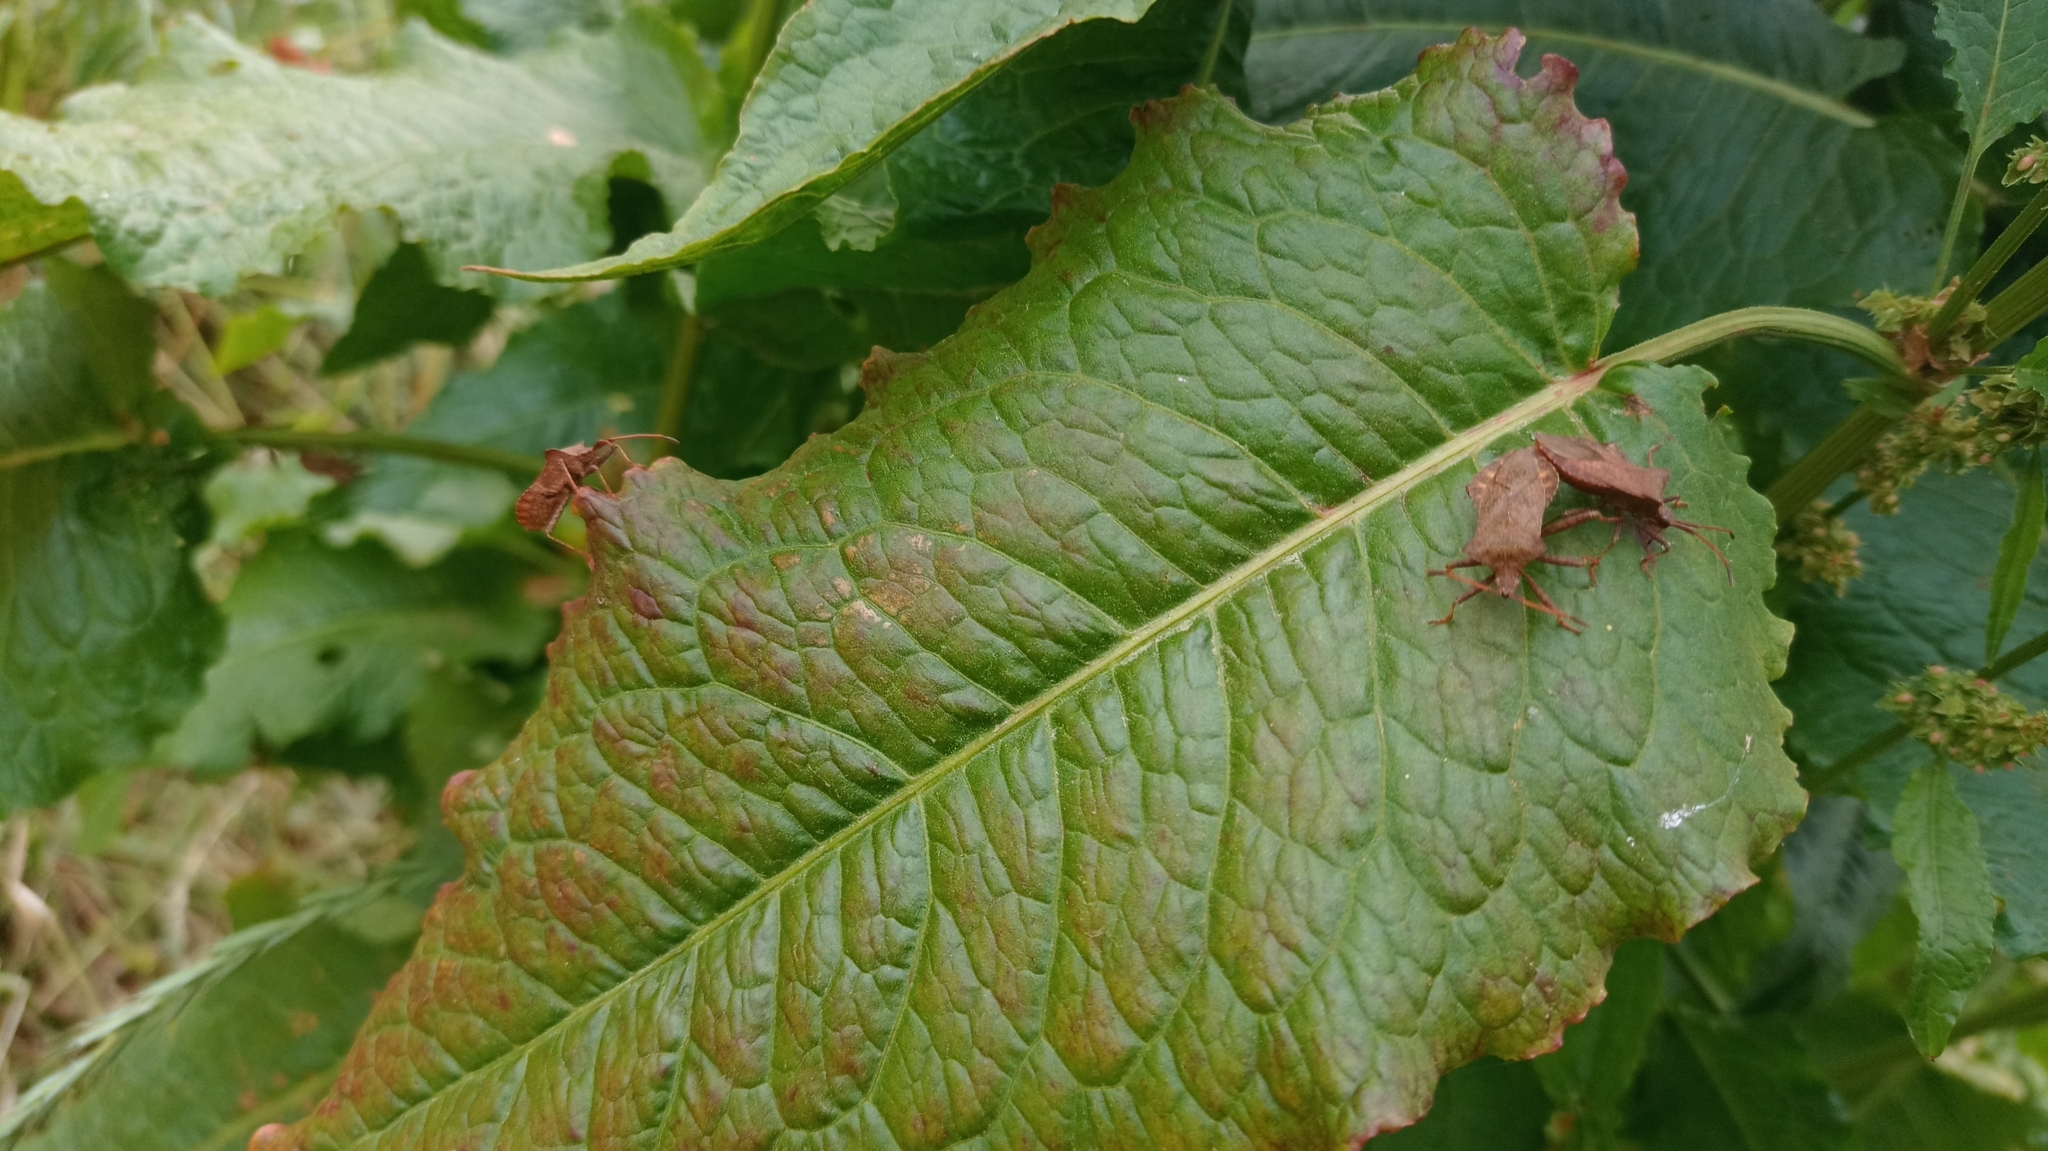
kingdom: Animalia
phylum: Arthropoda
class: Insecta
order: Hemiptera
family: Coreidae
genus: Coreus
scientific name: Coreus marginatus
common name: Dock bug
